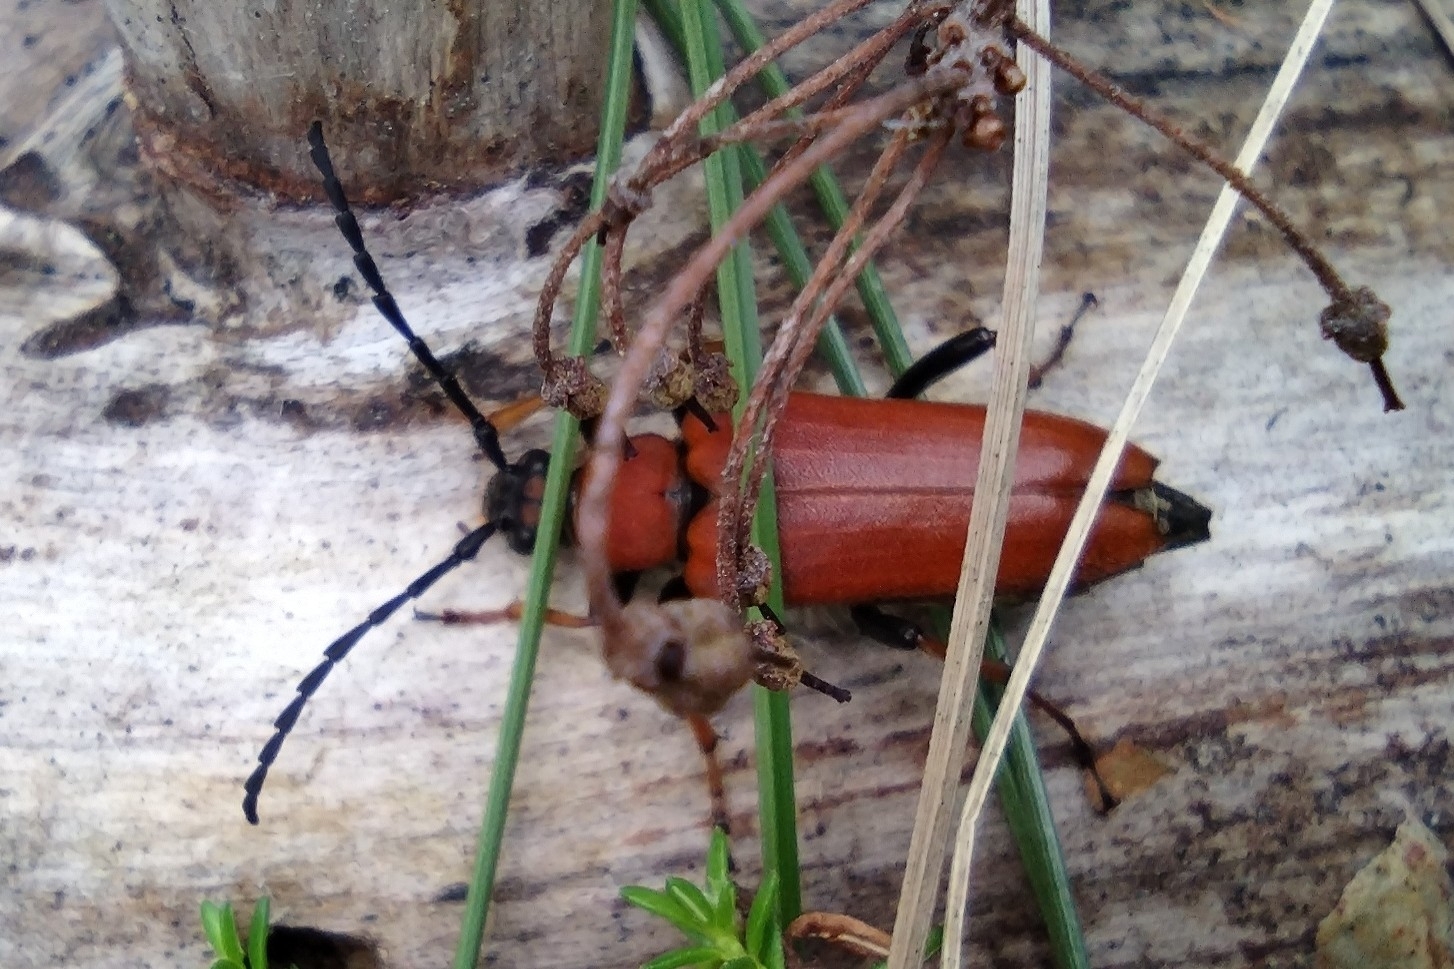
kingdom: Animalia
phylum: Arthropoda
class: Insecta
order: Coleoptera
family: Cerambycidae
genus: Stictoleptura
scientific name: Stictoleptura rubra
